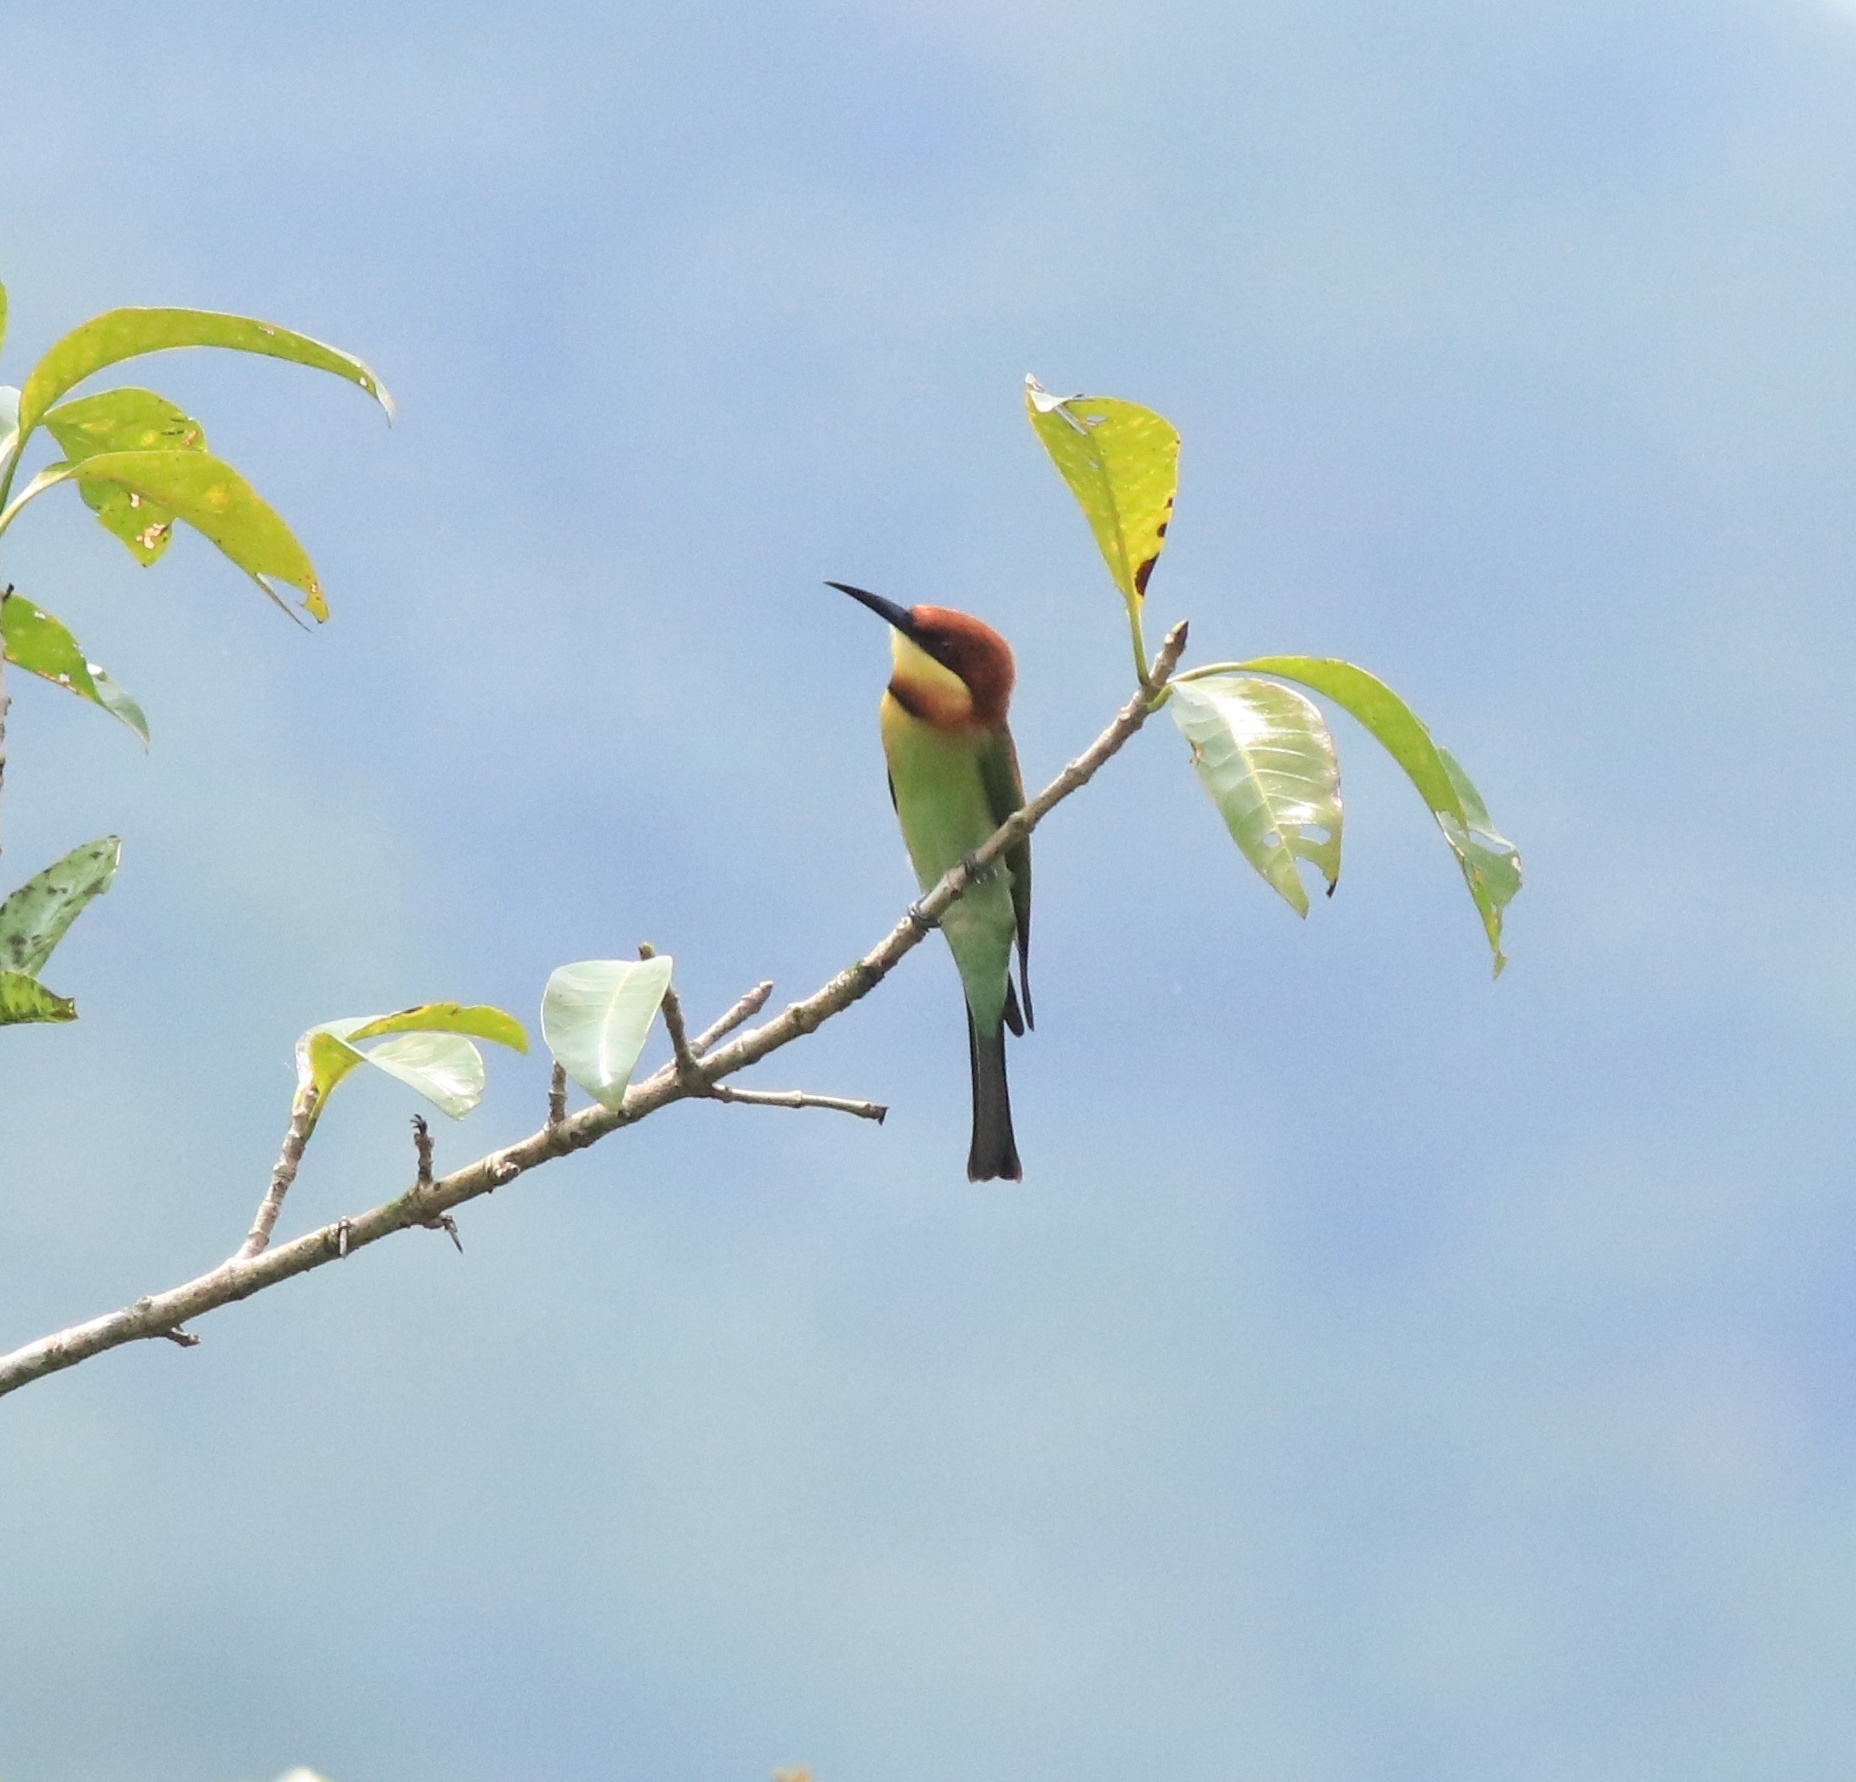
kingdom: Animalia
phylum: Chordata
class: Aves
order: Coraciiformes
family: Meropidae
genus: Merops
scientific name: Merops leschenaulti
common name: Chestnut-headed bee-eater
